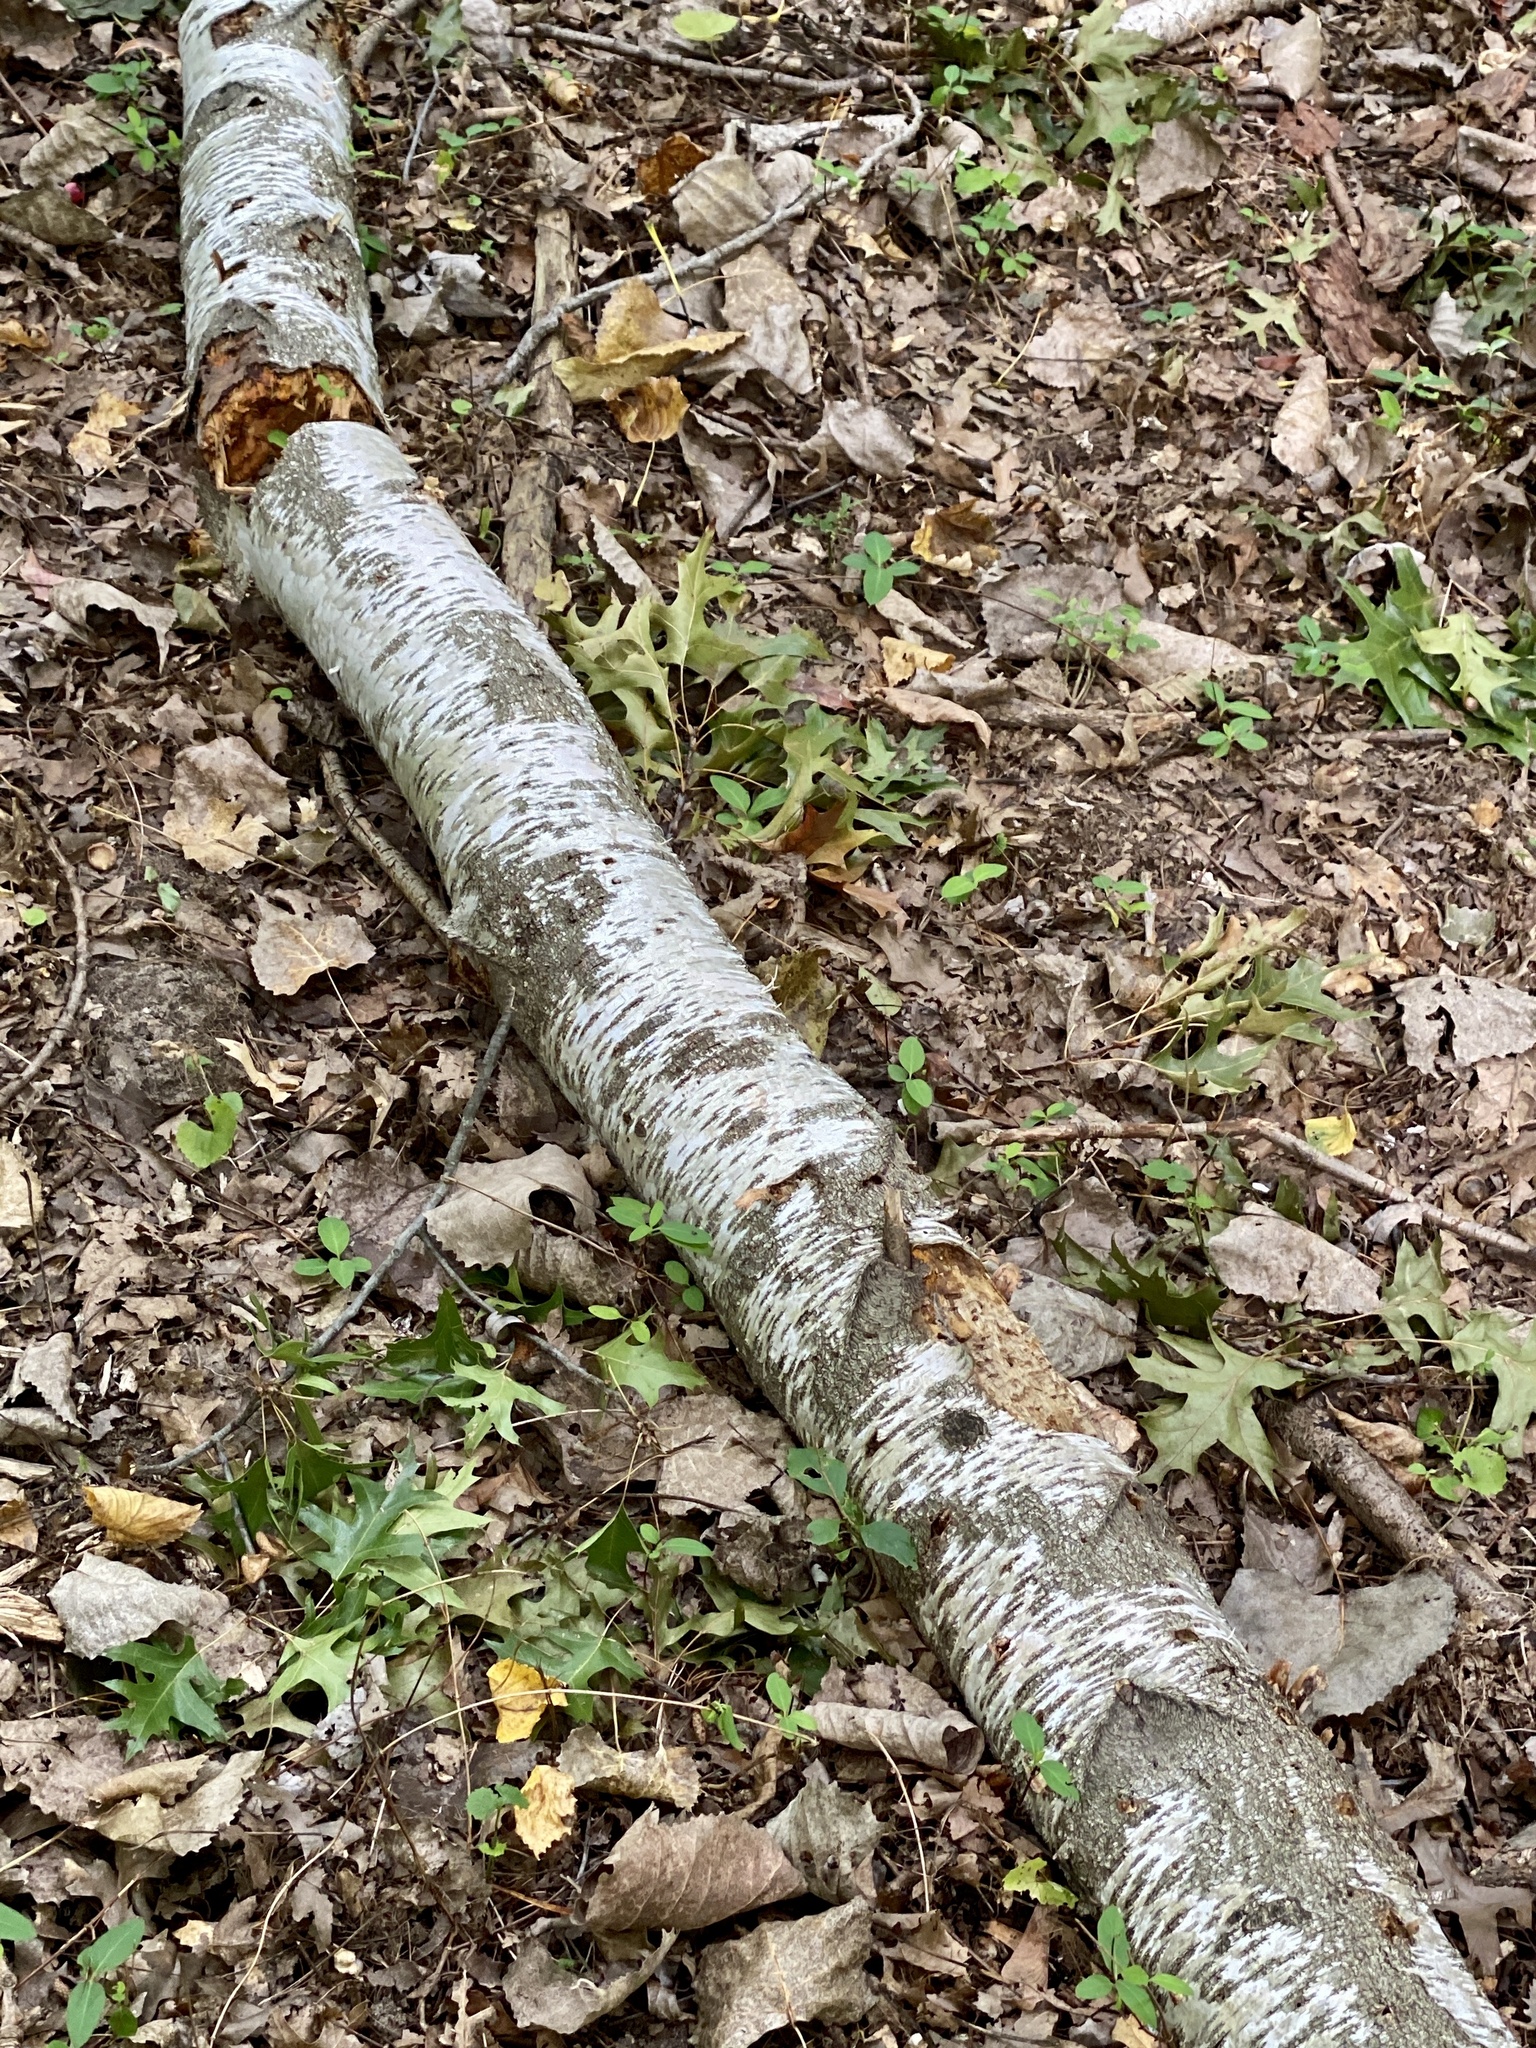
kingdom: Plantae
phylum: Tracheophyta
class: Magnoliopsida
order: Fagales
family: Betulaceae
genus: Betula
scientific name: Betula populifolia
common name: Fire birch
